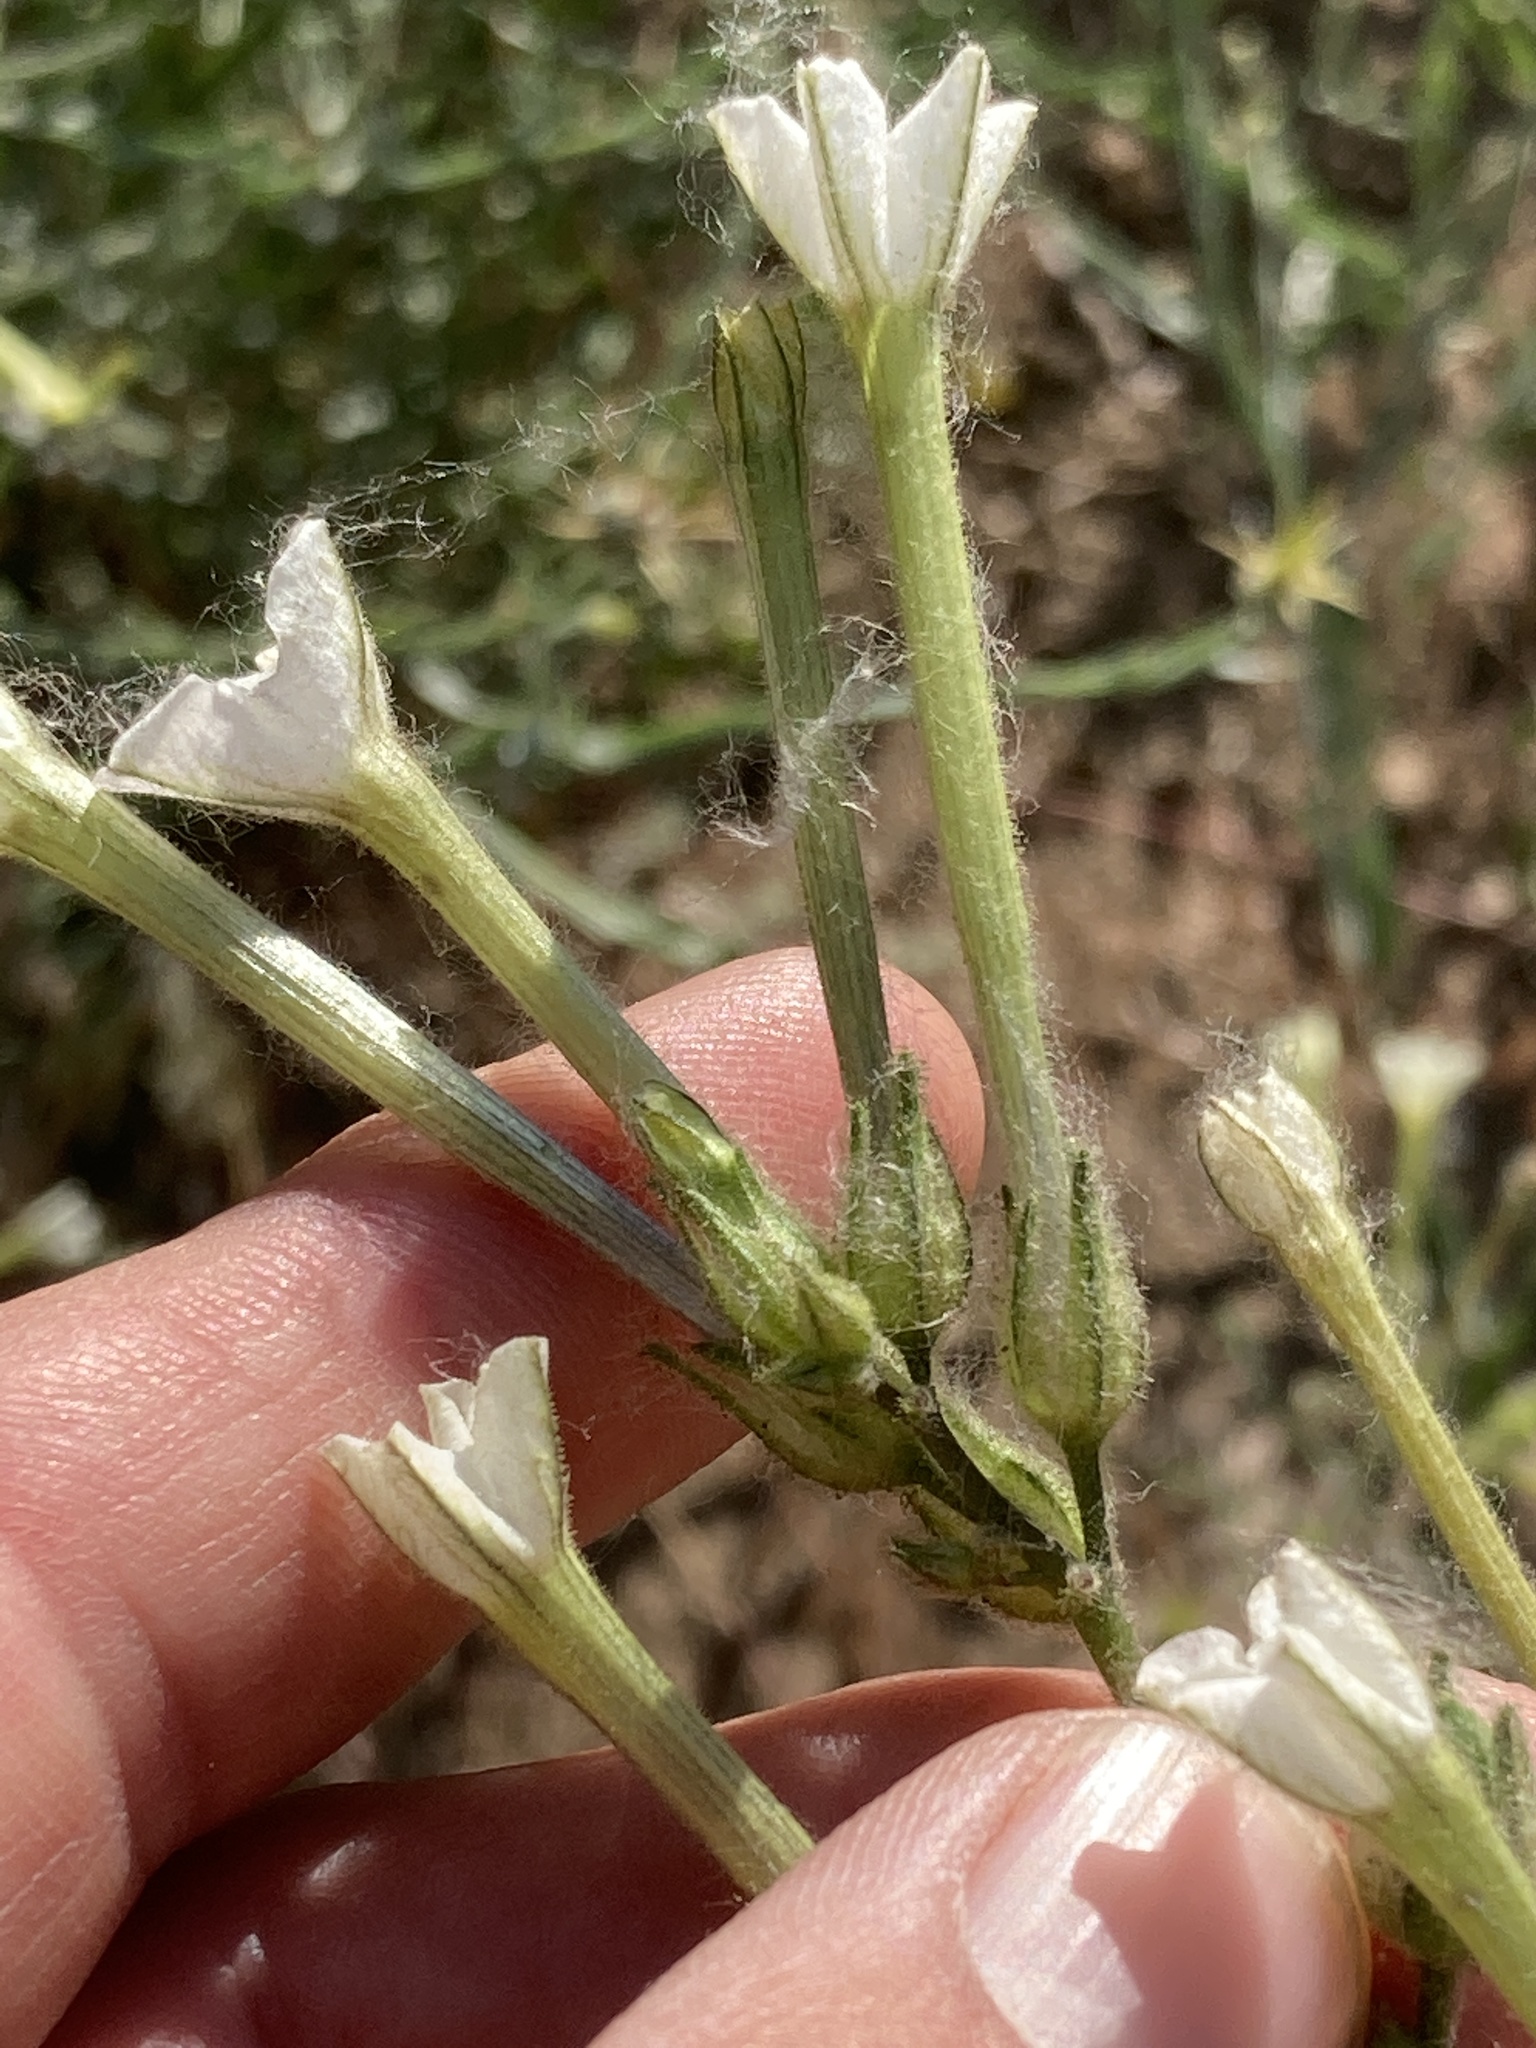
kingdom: Plantae
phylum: Tracheophyta
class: Magnoliopsida
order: Solanales
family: Solanaceae
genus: Nicotiana
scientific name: Nicotiana acuminata
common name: Manyflower tobacco
